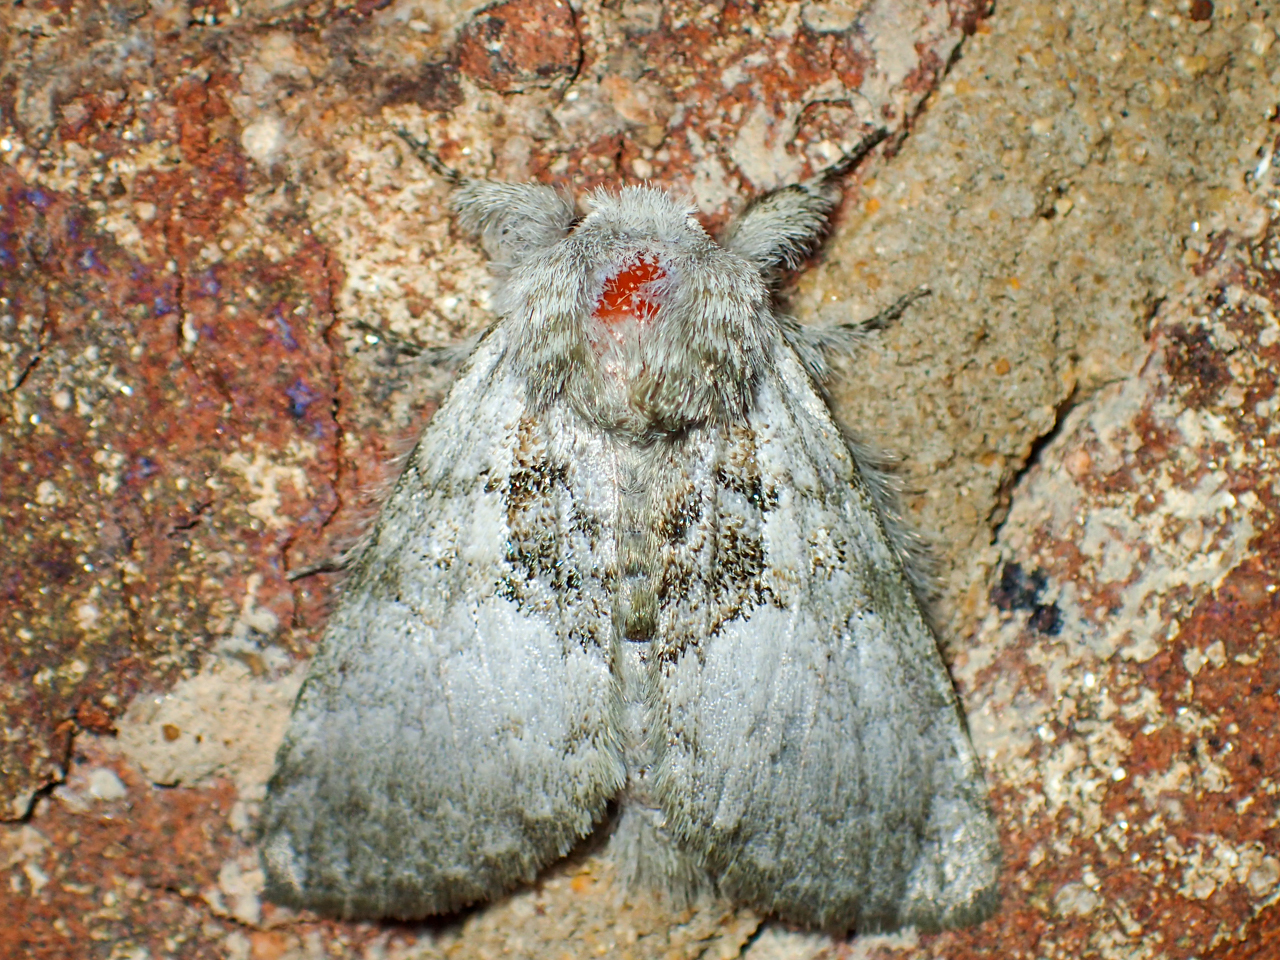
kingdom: Animalia
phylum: Arthropoda
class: Insecta
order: Lepidoptera
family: Noctuidae
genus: Colocasia
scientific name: Colocasia flavicornis
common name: Saddled yellowhorn
